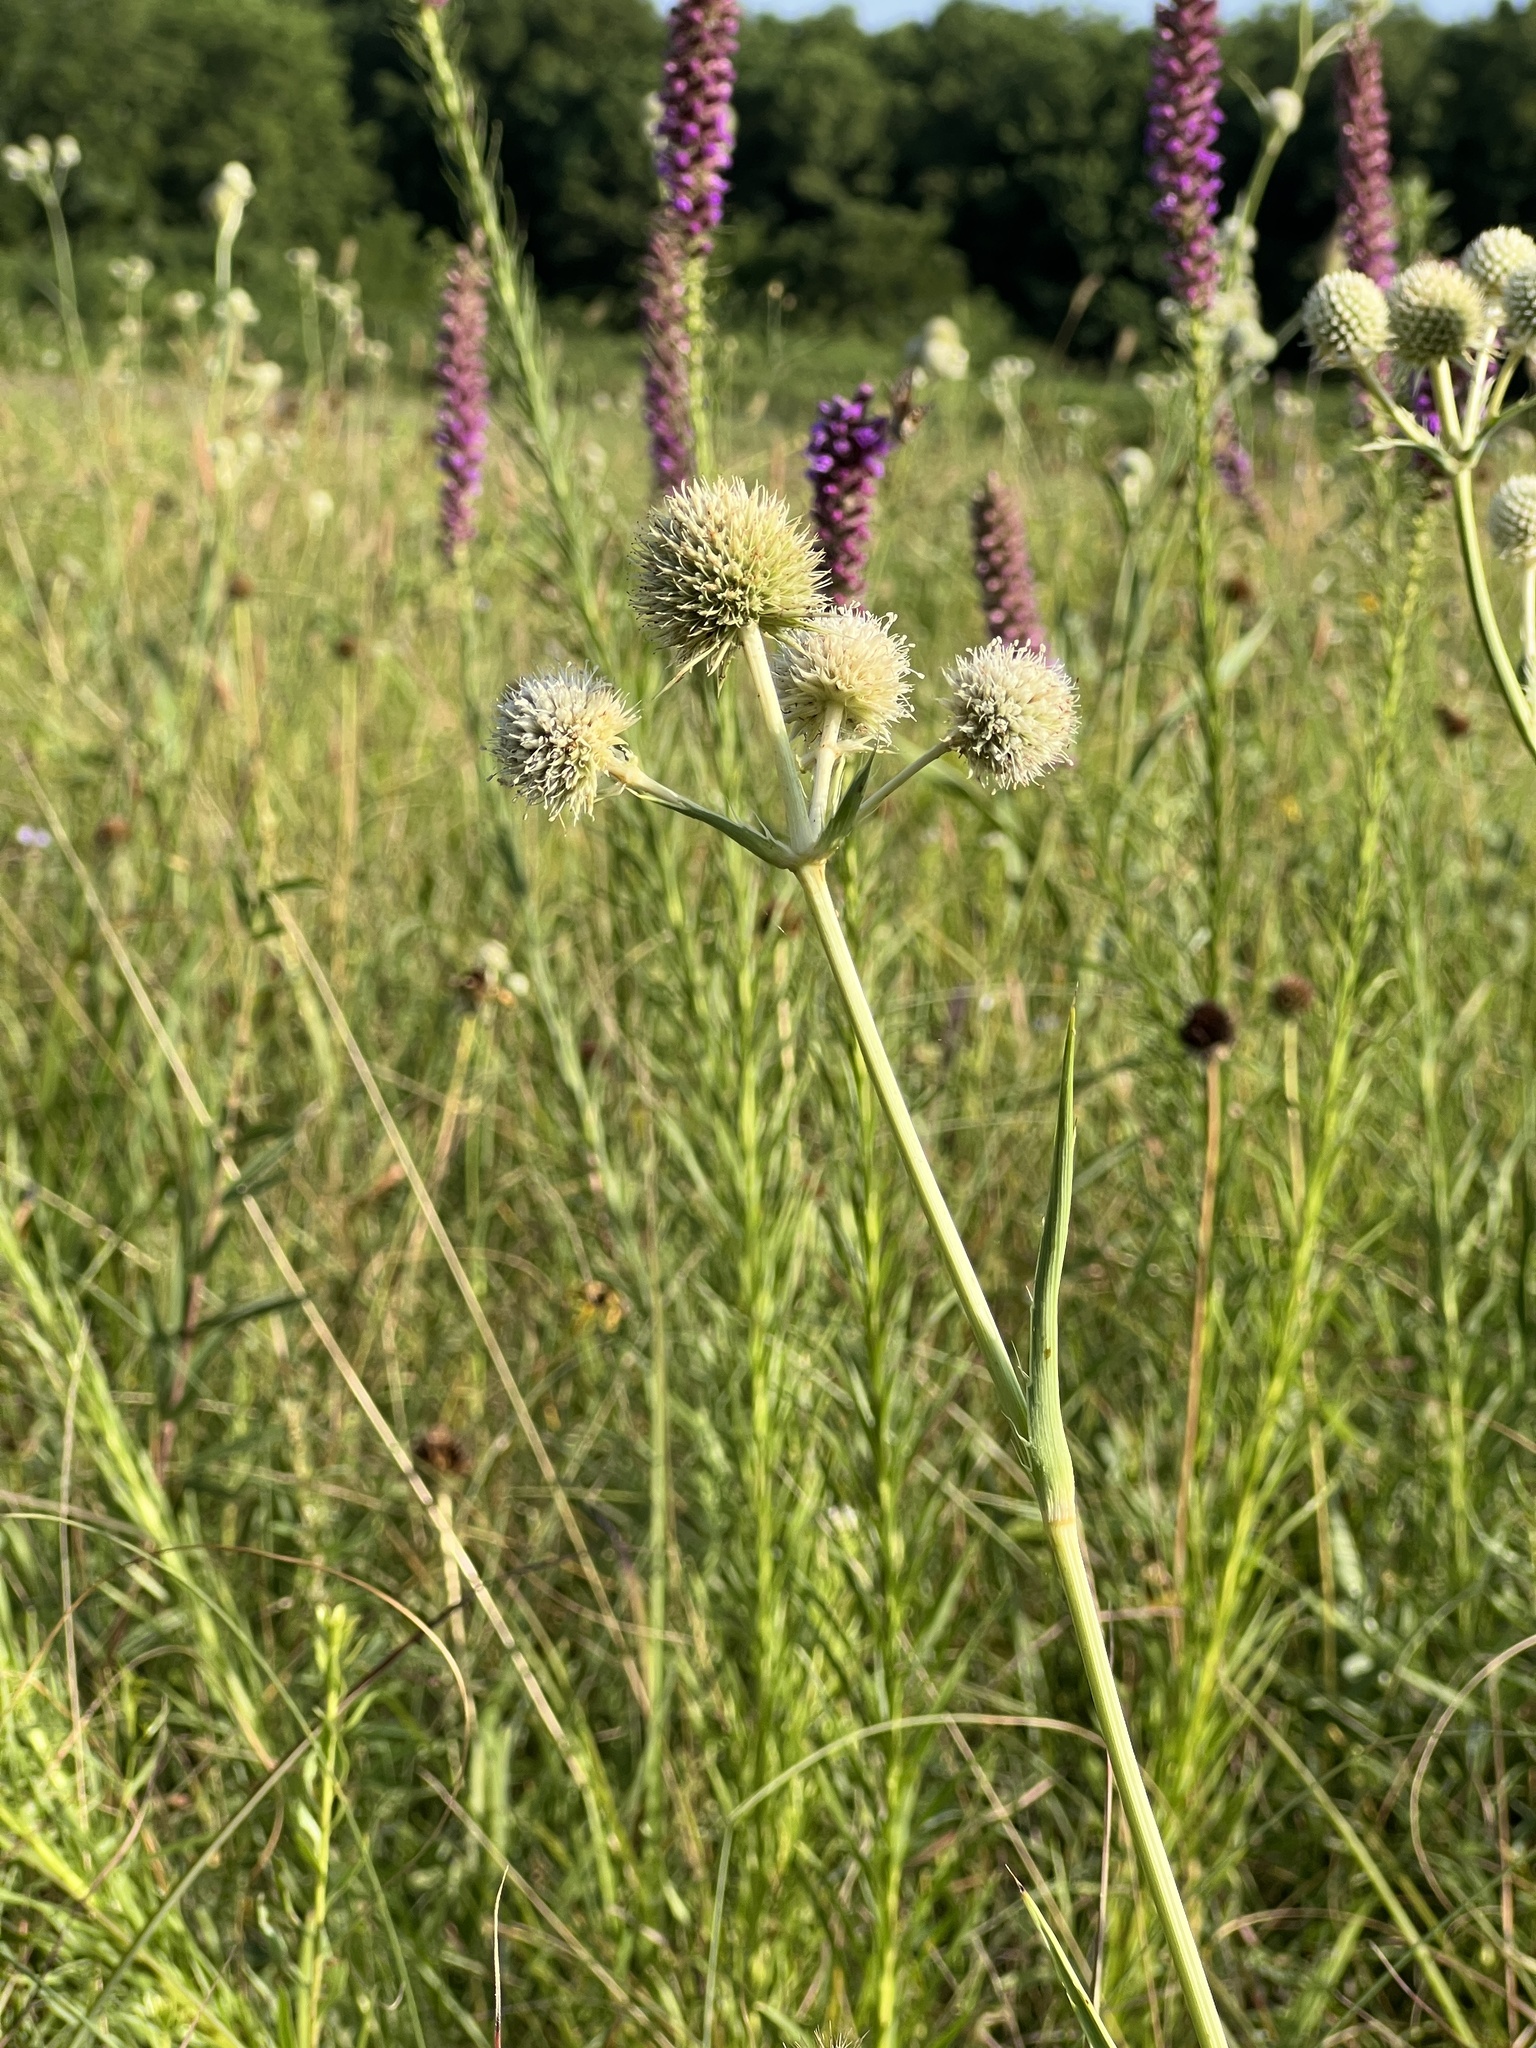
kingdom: Plantae
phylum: Tracheophyta
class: Magnoliopsida
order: Apiales
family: Apiaceae
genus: Eryngium
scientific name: Eryngium yuccifolium
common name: Button eryngo
